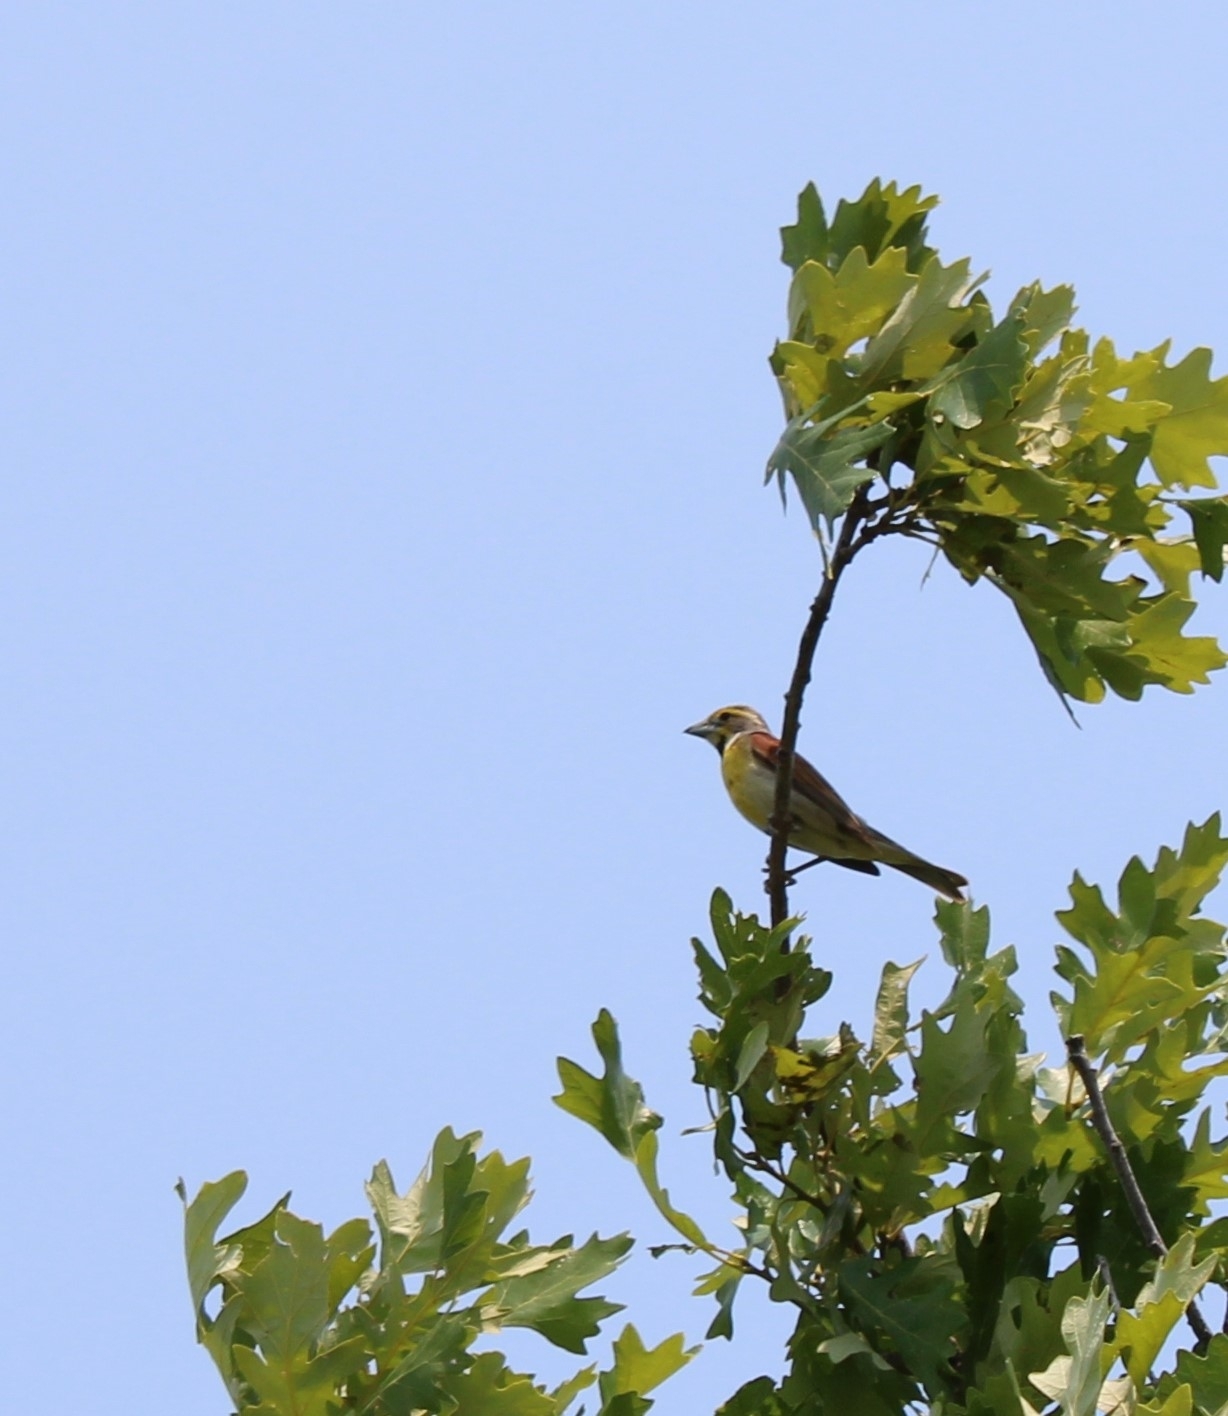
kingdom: Animalia
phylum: Chordata
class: Aves
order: Passeriformes
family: Cardinalidae
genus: Spiza
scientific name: Spiza americana
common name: Dickcissel
